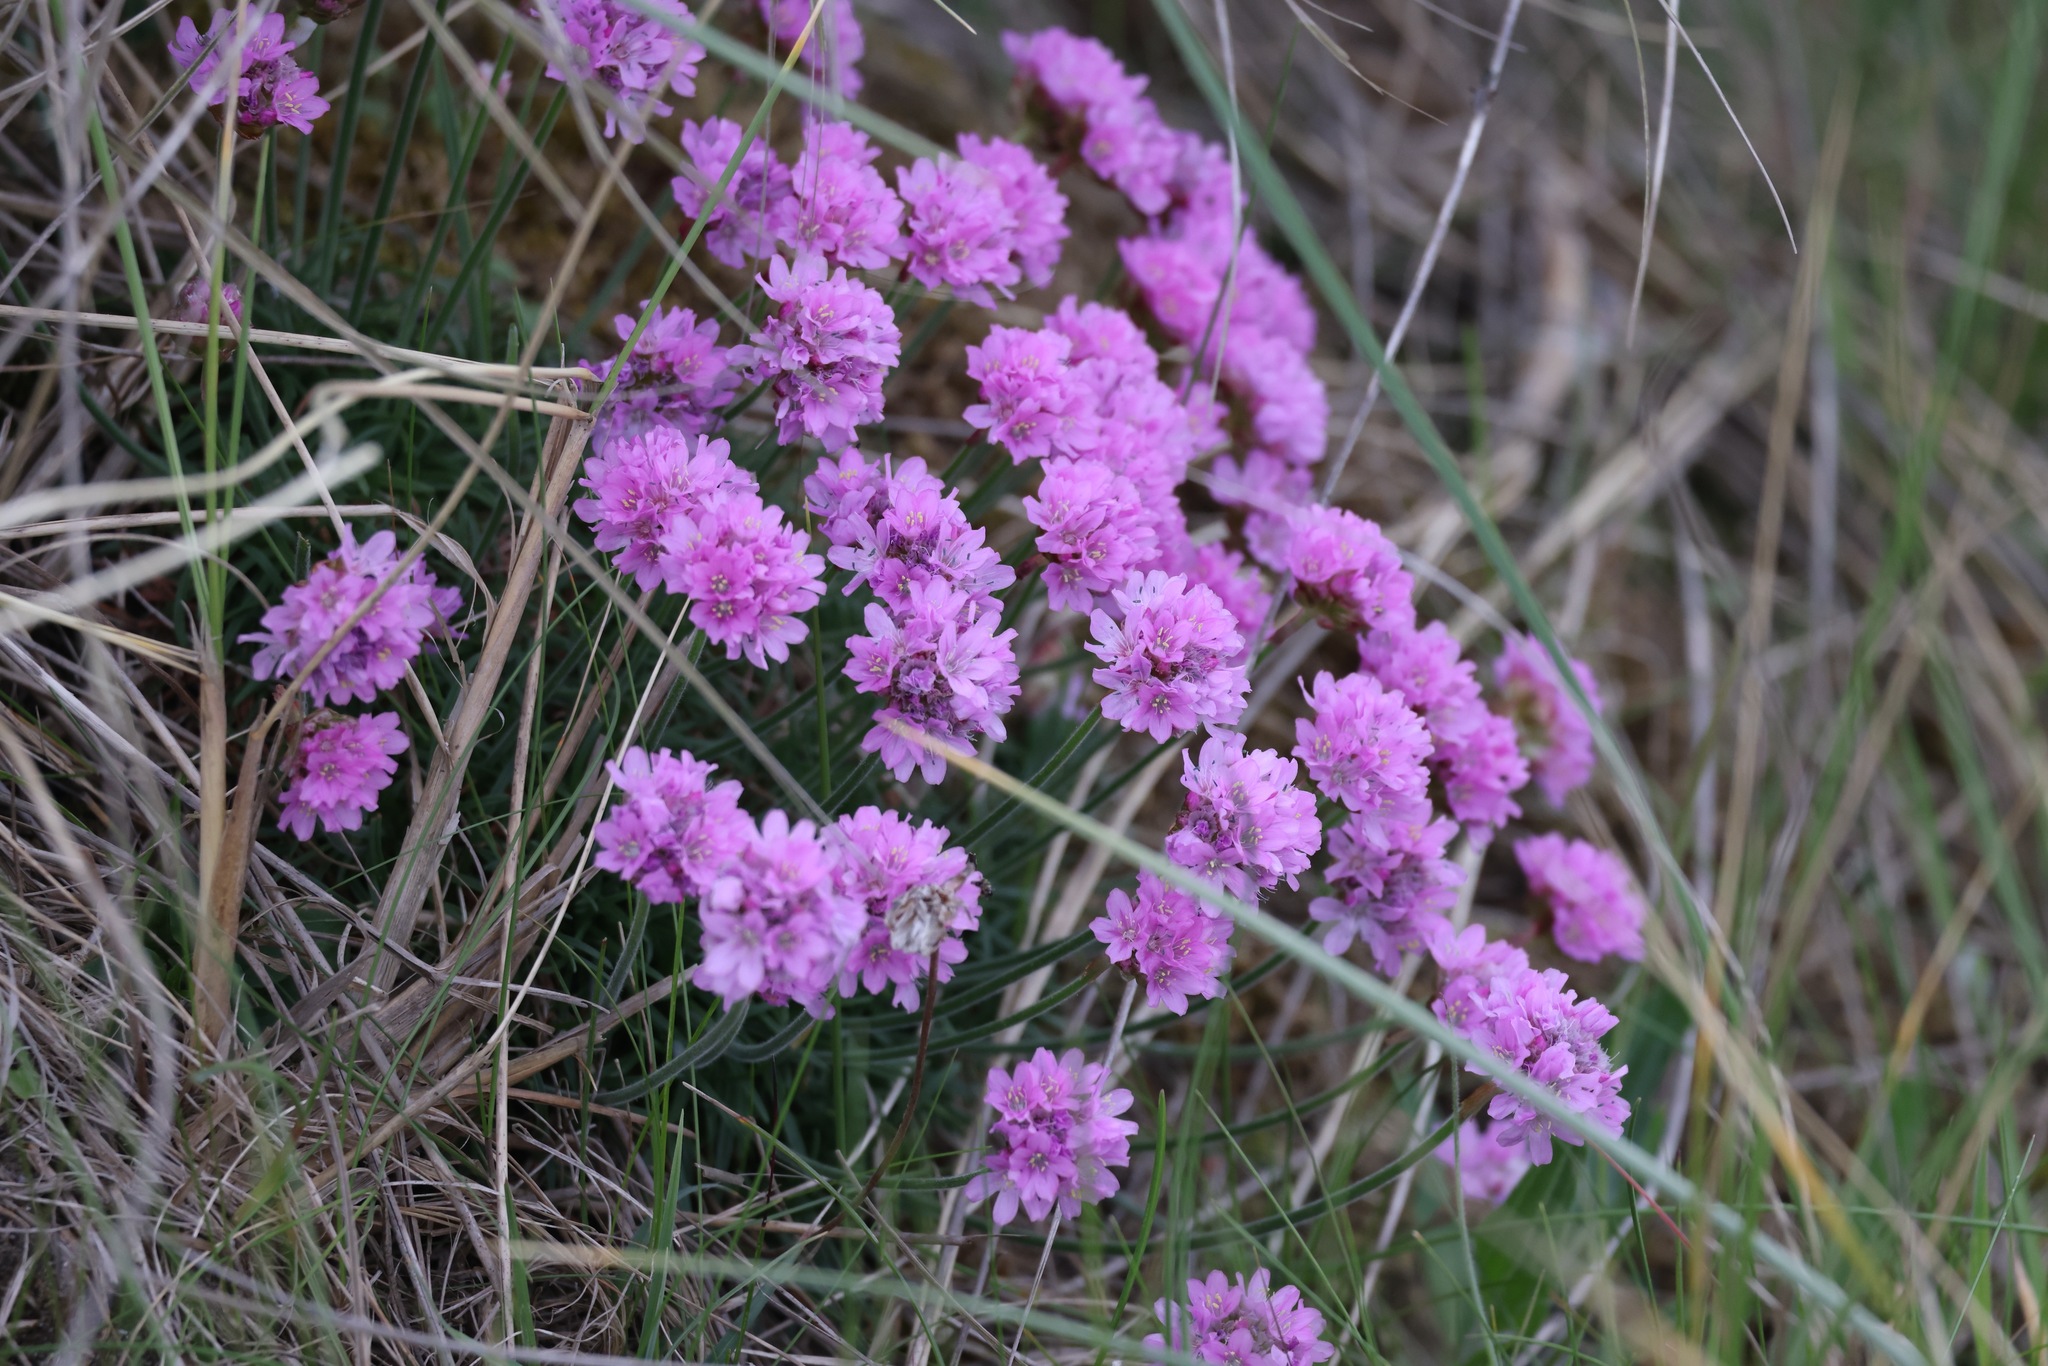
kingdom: Plantae
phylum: Tracheophyta
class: Magnoliopsida
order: Caryophyllales
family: Plumbaginaceae
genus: Armeria
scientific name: Armeria maritima
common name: Thrift
